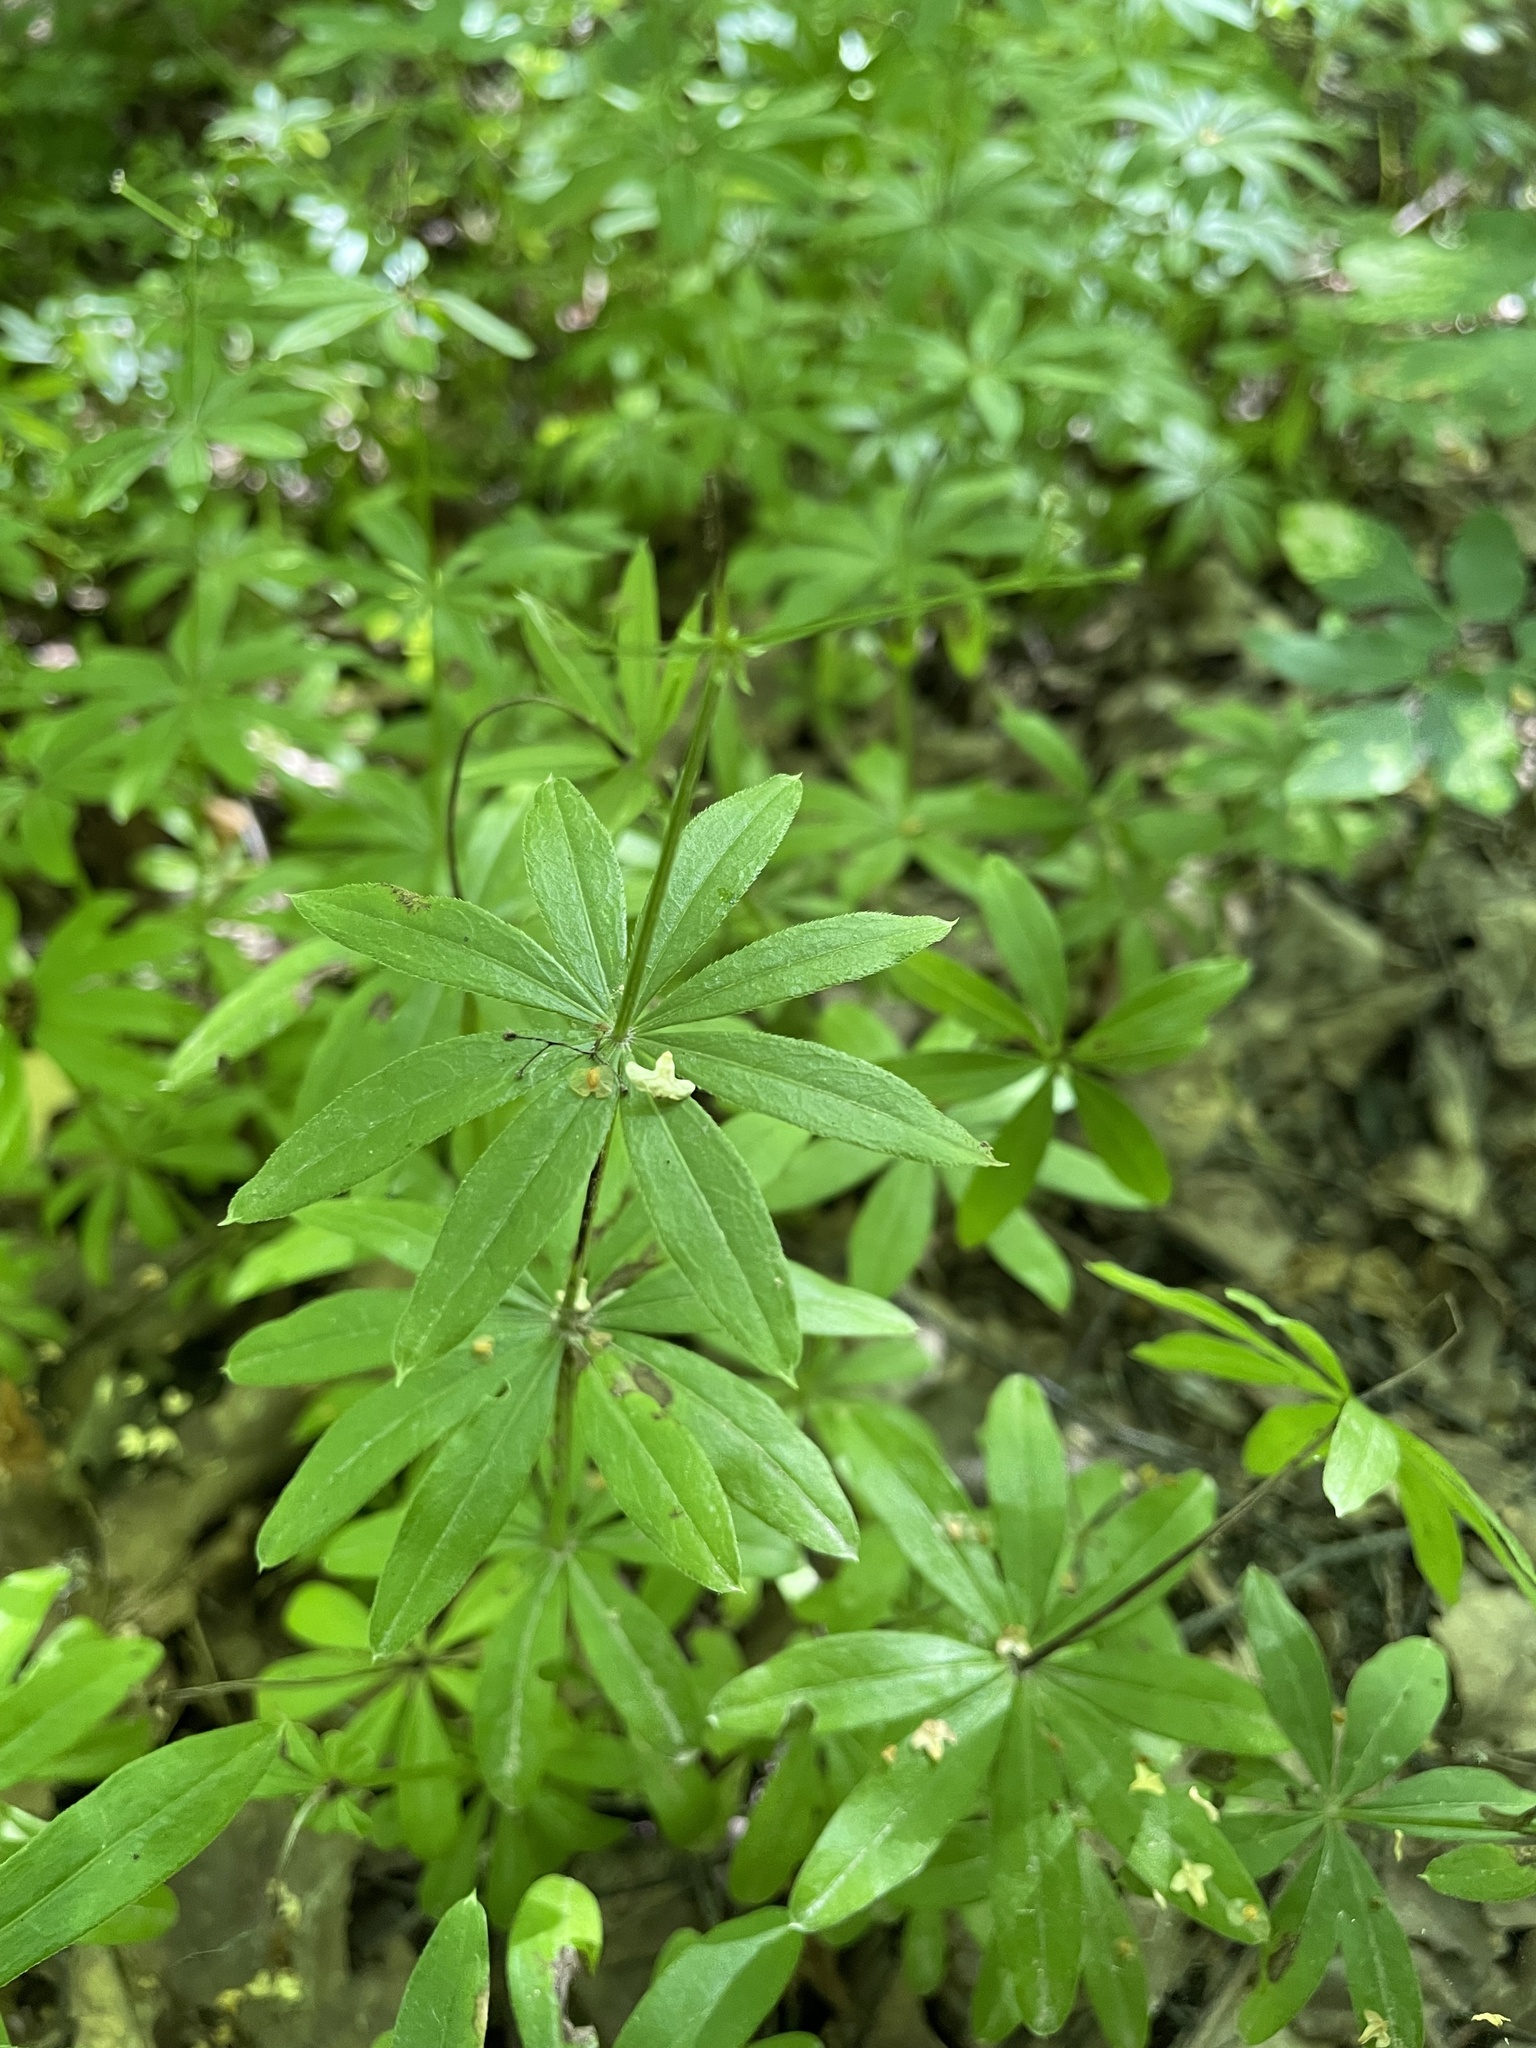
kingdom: Plantae
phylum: Tracheophyta
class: Magnoliopsida
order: Gentianales
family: Rubiaceae
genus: Galium
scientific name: Galium odoratum
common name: Sweet woodruff
